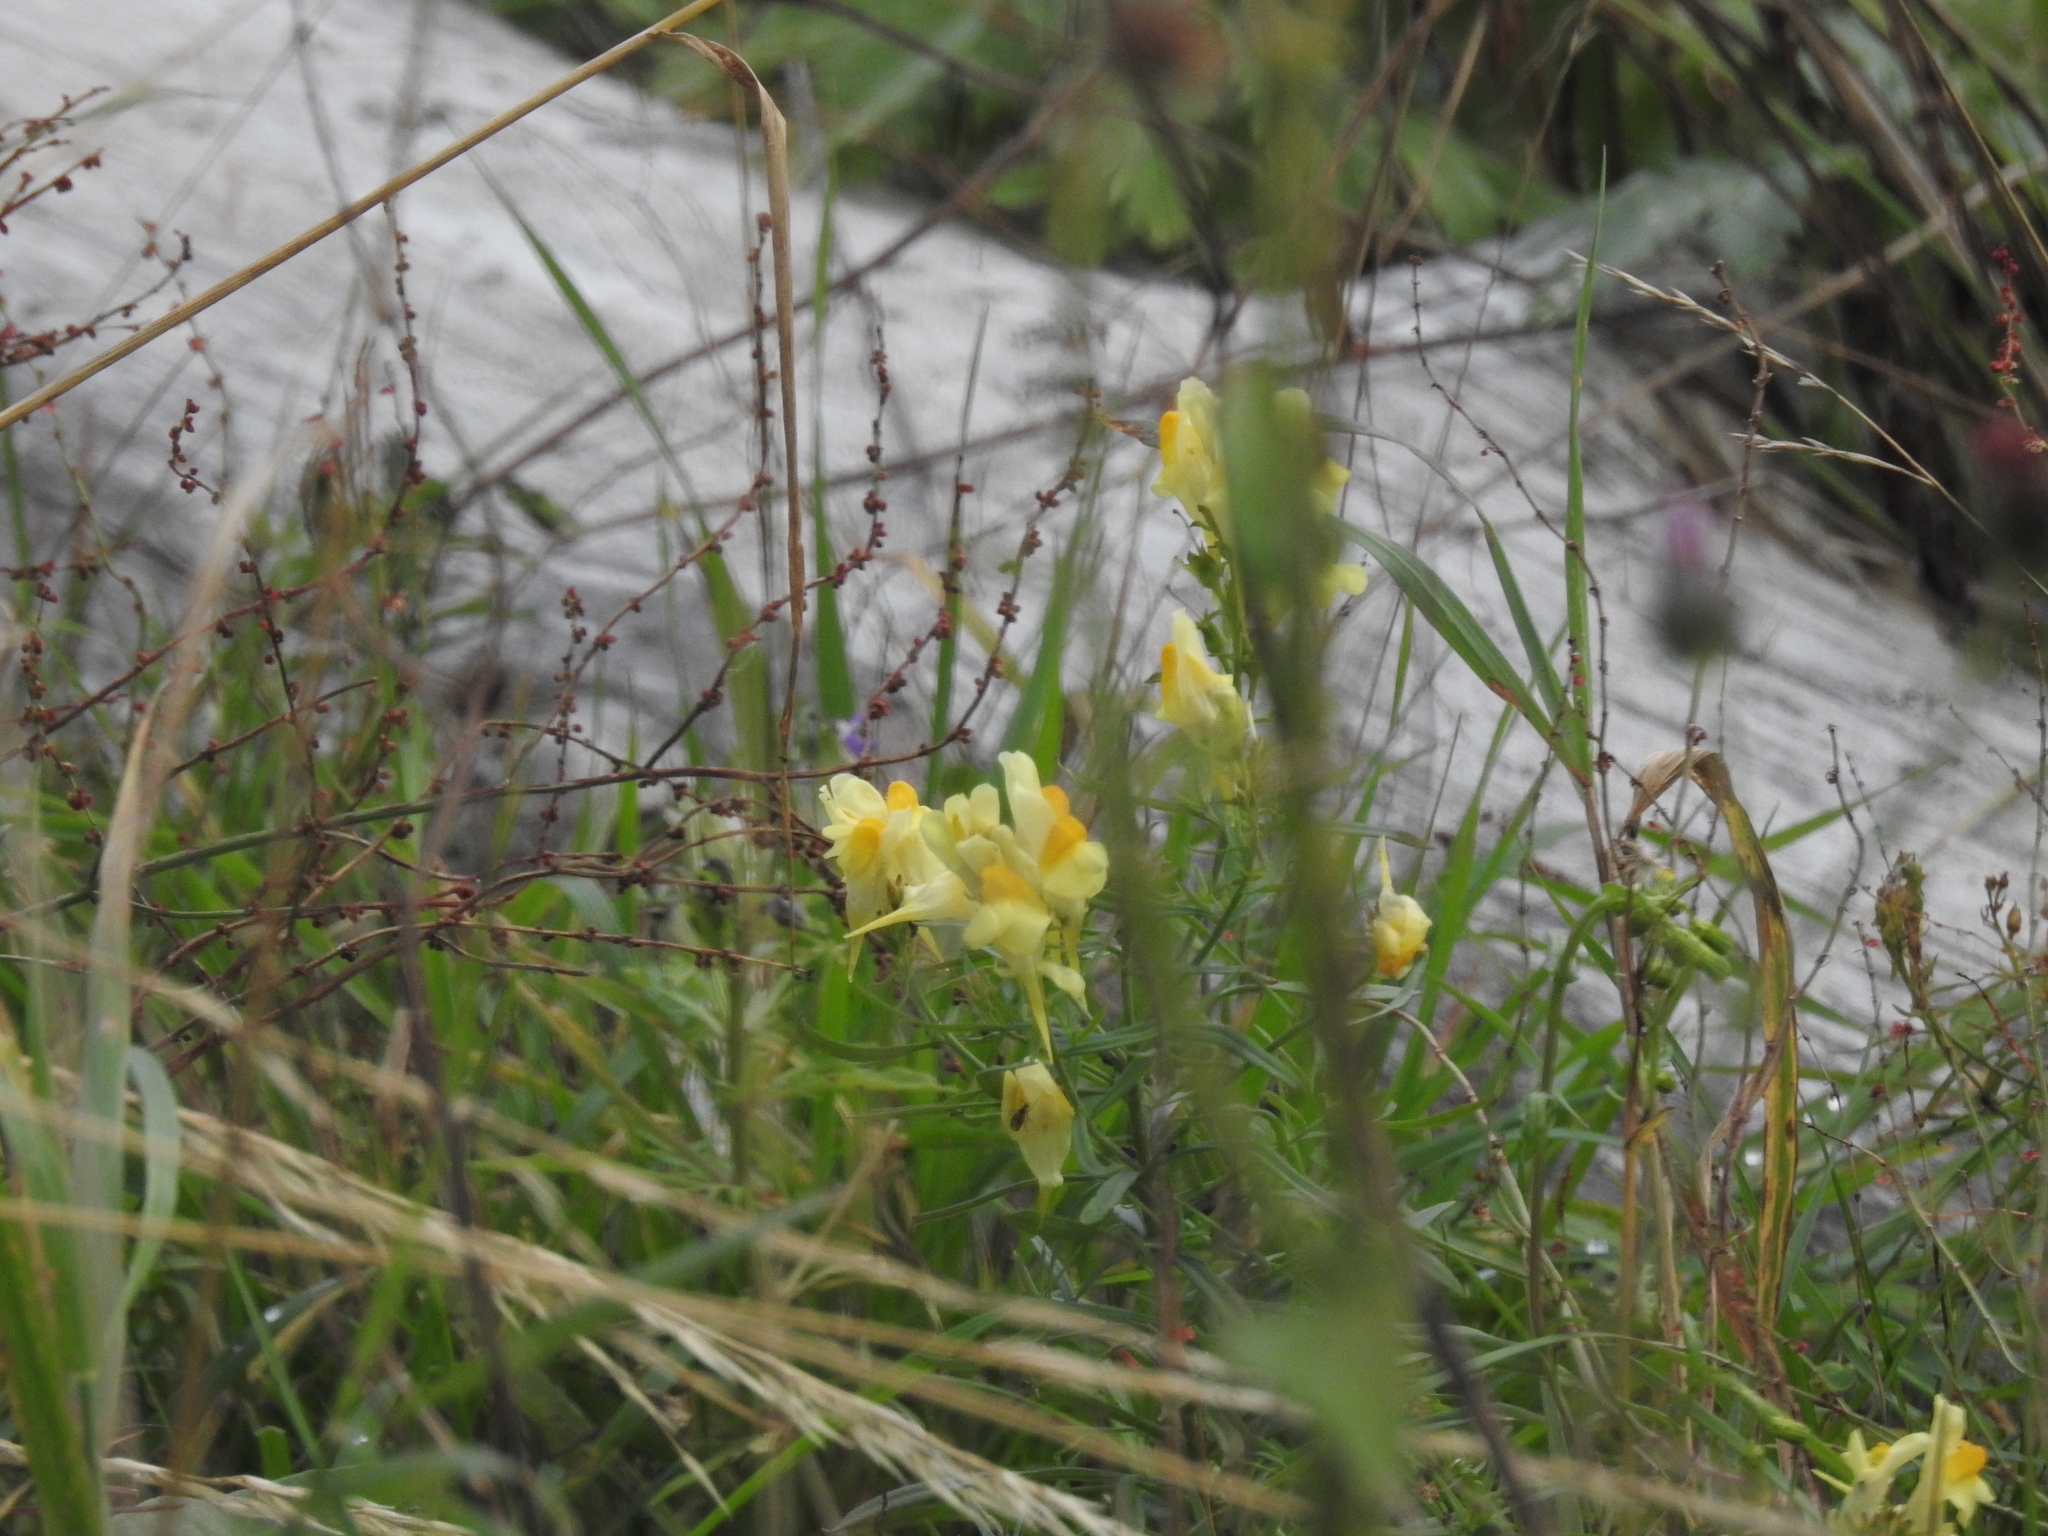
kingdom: Plantae
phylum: Tracheophyta
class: Magnoliopsida
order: Lamiales
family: Plantaginaceae
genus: Linaria
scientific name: Linaria vulgaris
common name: Butter and eggs
